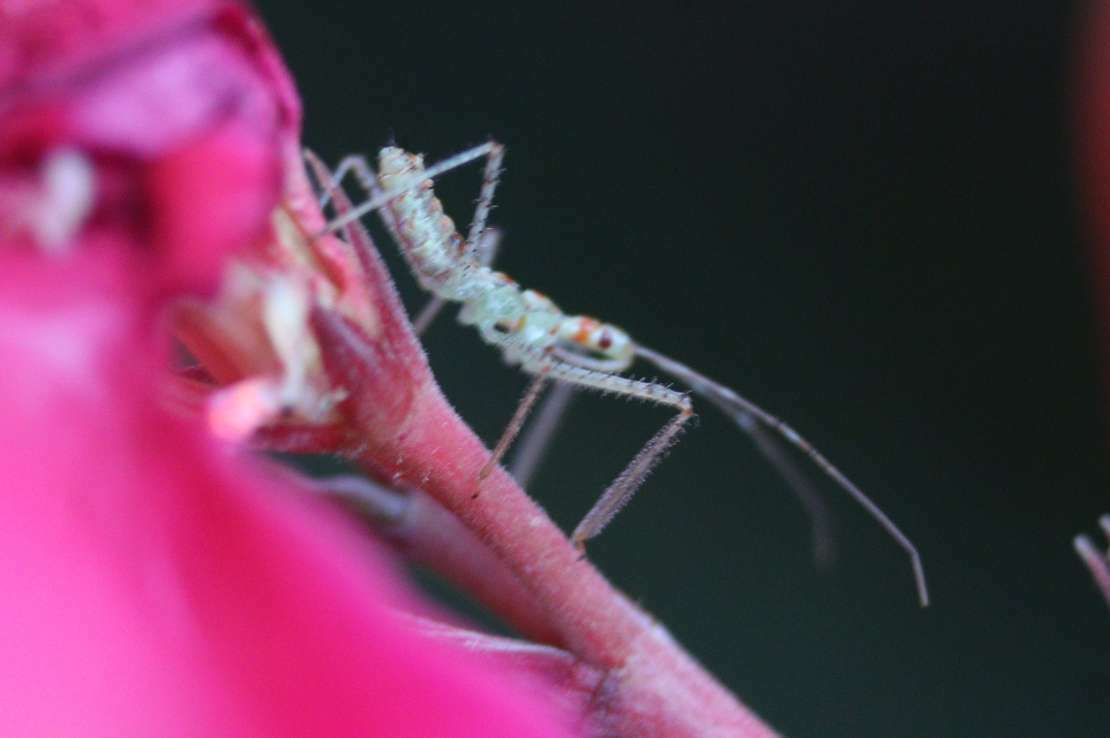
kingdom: Animalia
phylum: Arthropoda
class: Insecta
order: Hemiptera
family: Reduviidae
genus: Zelus
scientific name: Zelus renardii
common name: Assassin bug
